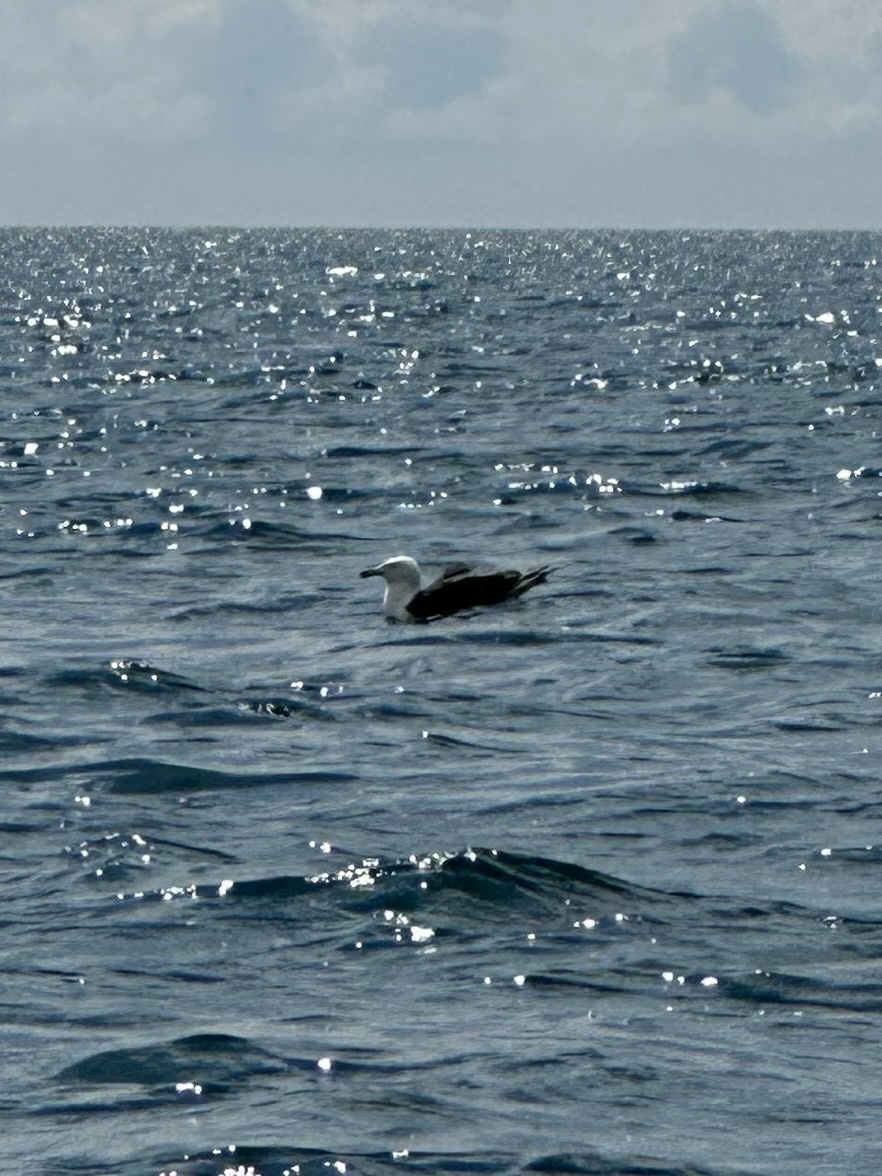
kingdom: Animalia
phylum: Chordata
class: Aves
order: Charadriiformes
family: Laridae
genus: Larus
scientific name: Larus marinus
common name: Great black-backed gull
